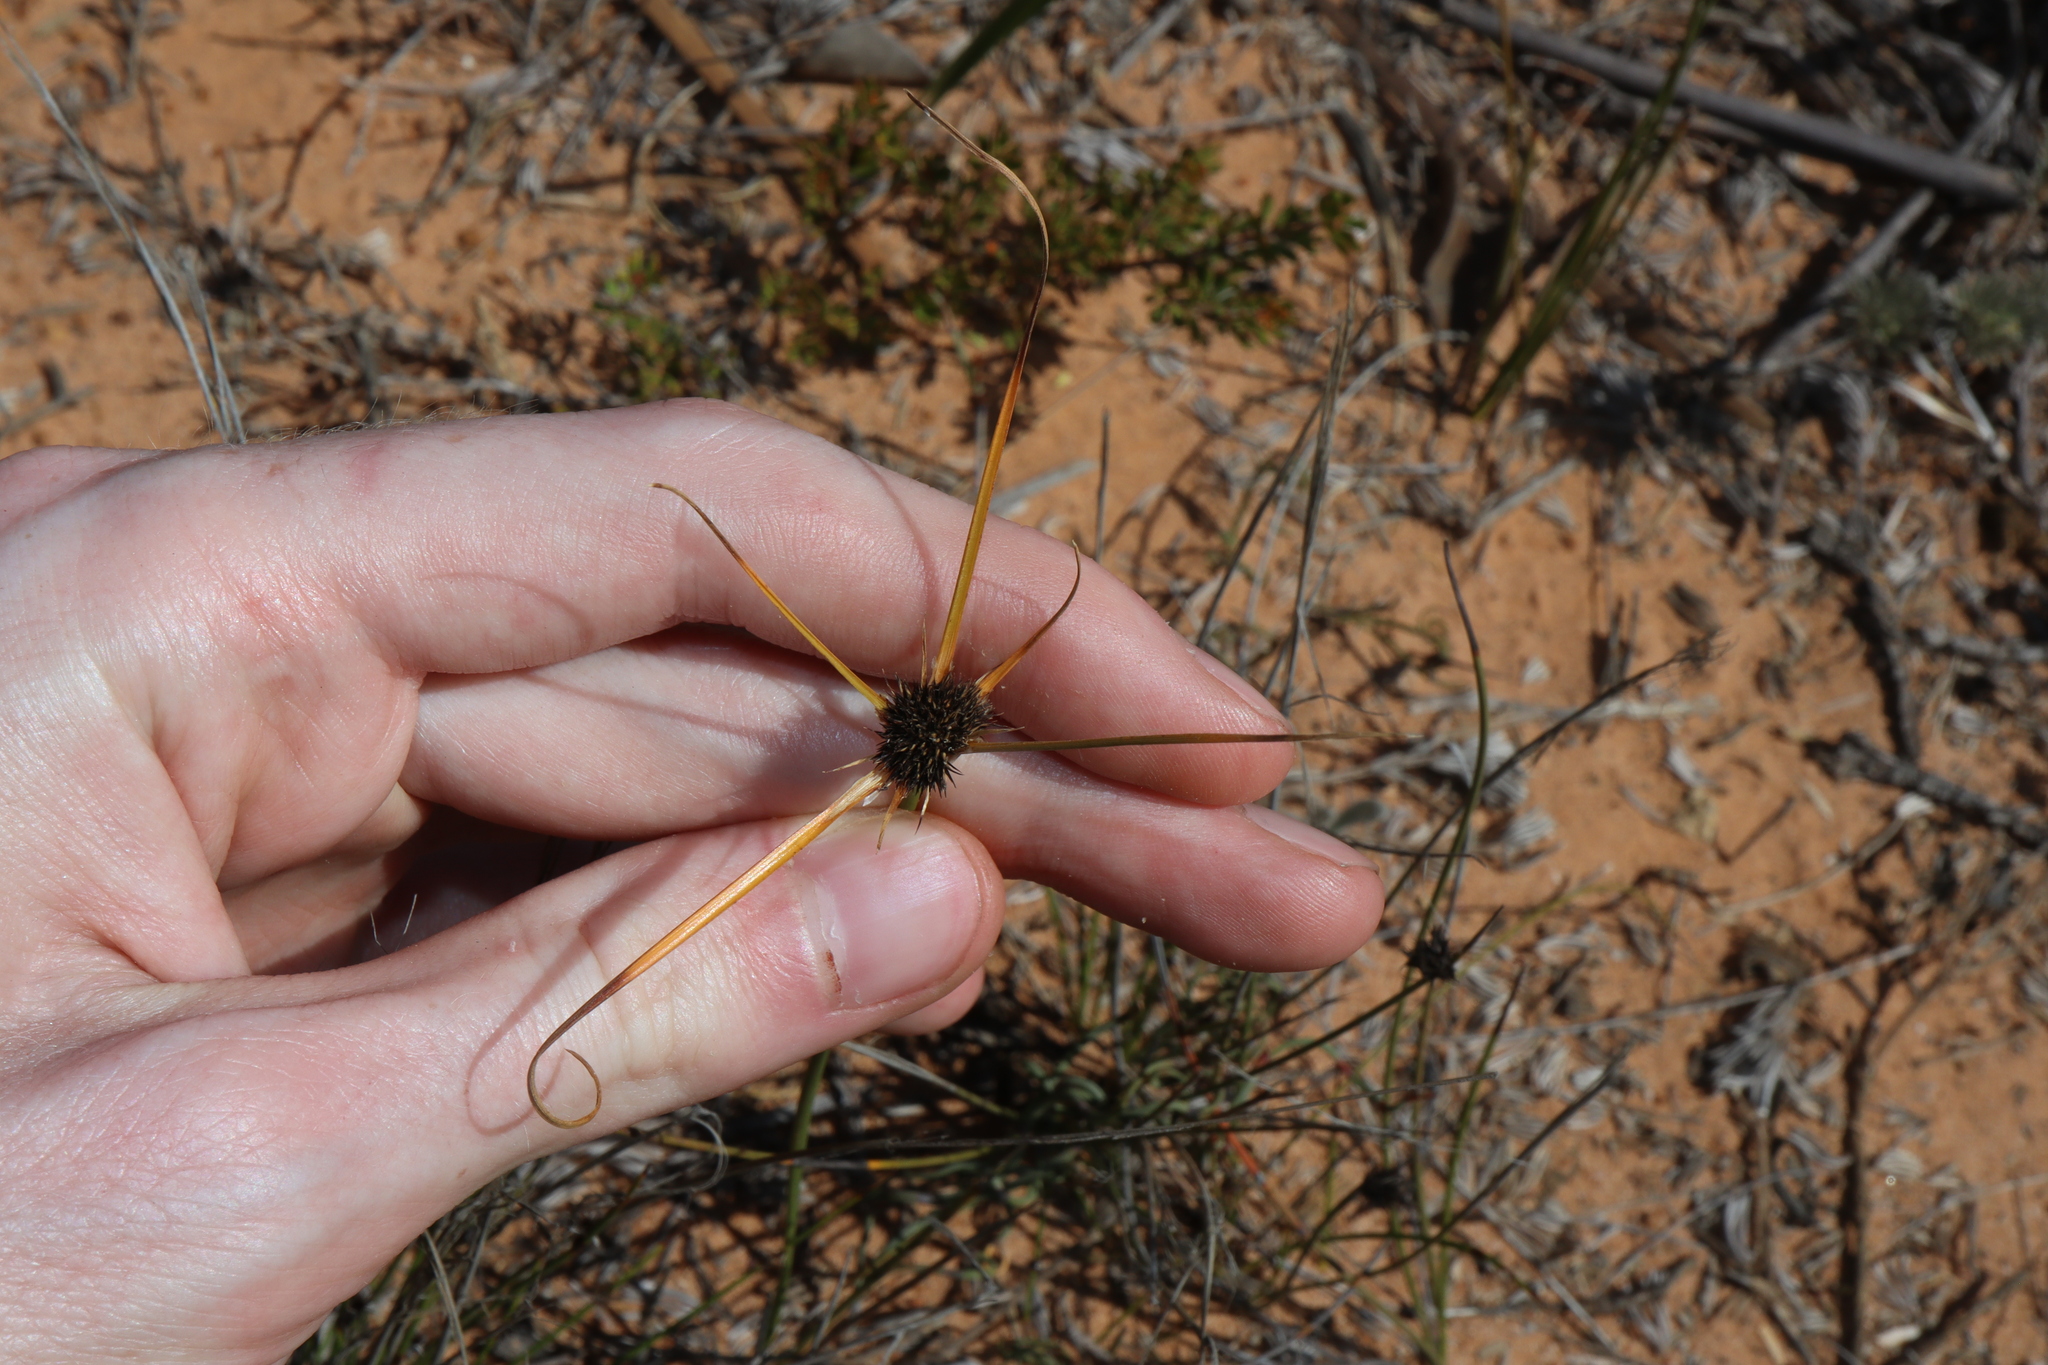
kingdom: Plantae
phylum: Tracheophyta
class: Liliopsida
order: Poales
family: Cyperaceae
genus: Schoenus
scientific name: Schoenus curvifolius
